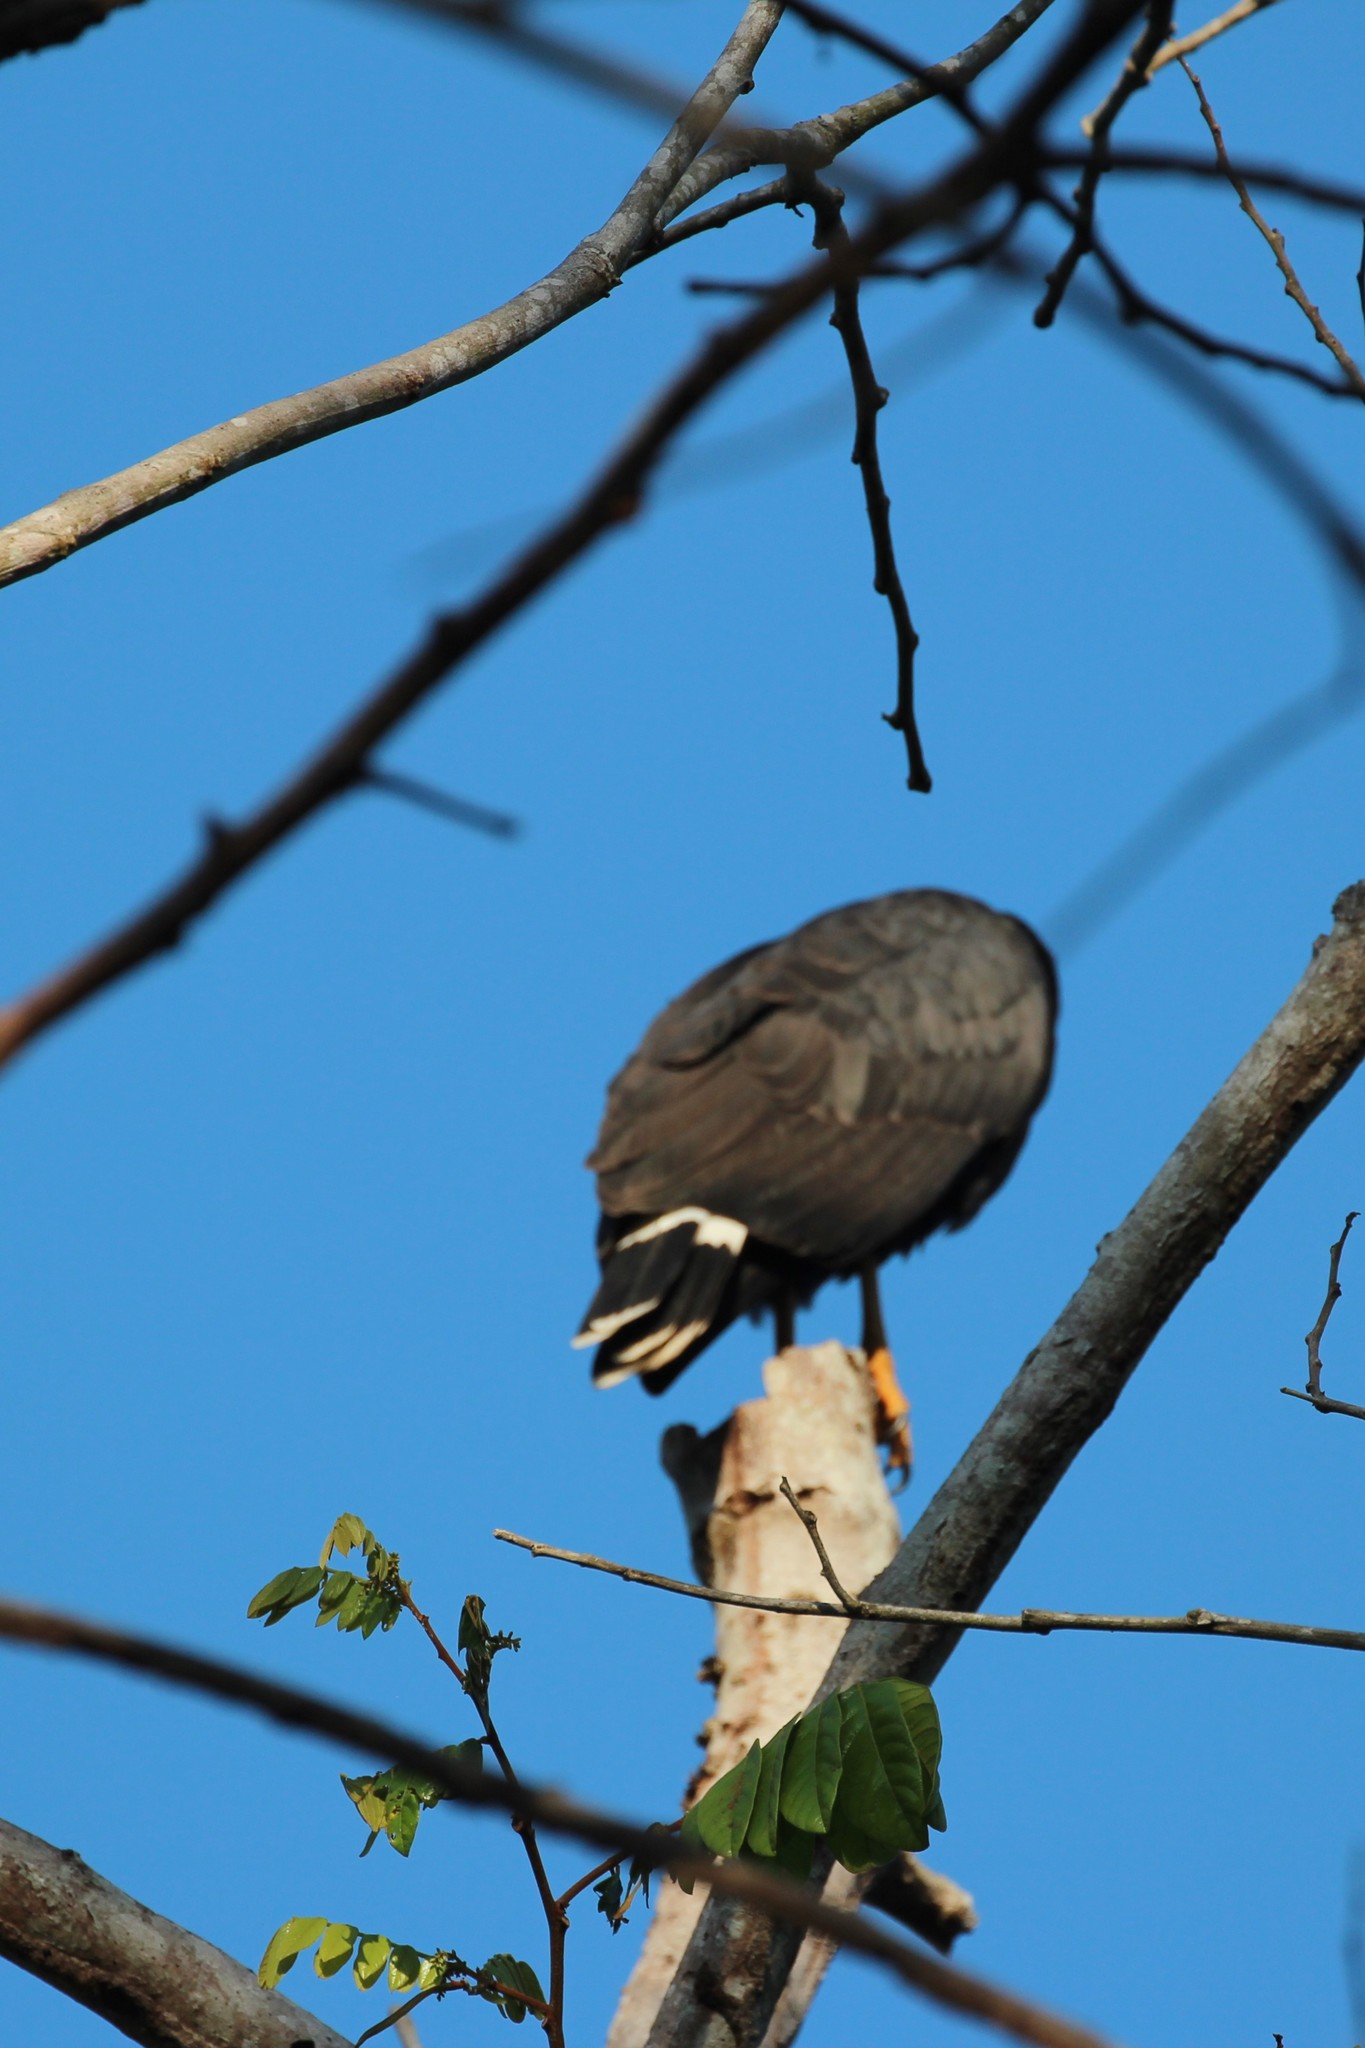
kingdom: Animalia
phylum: Chordata
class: Aves
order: Accipitriformes
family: Accipitridae
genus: Buteogallus
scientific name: Buteogallus anthracinus
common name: Common black hawk
